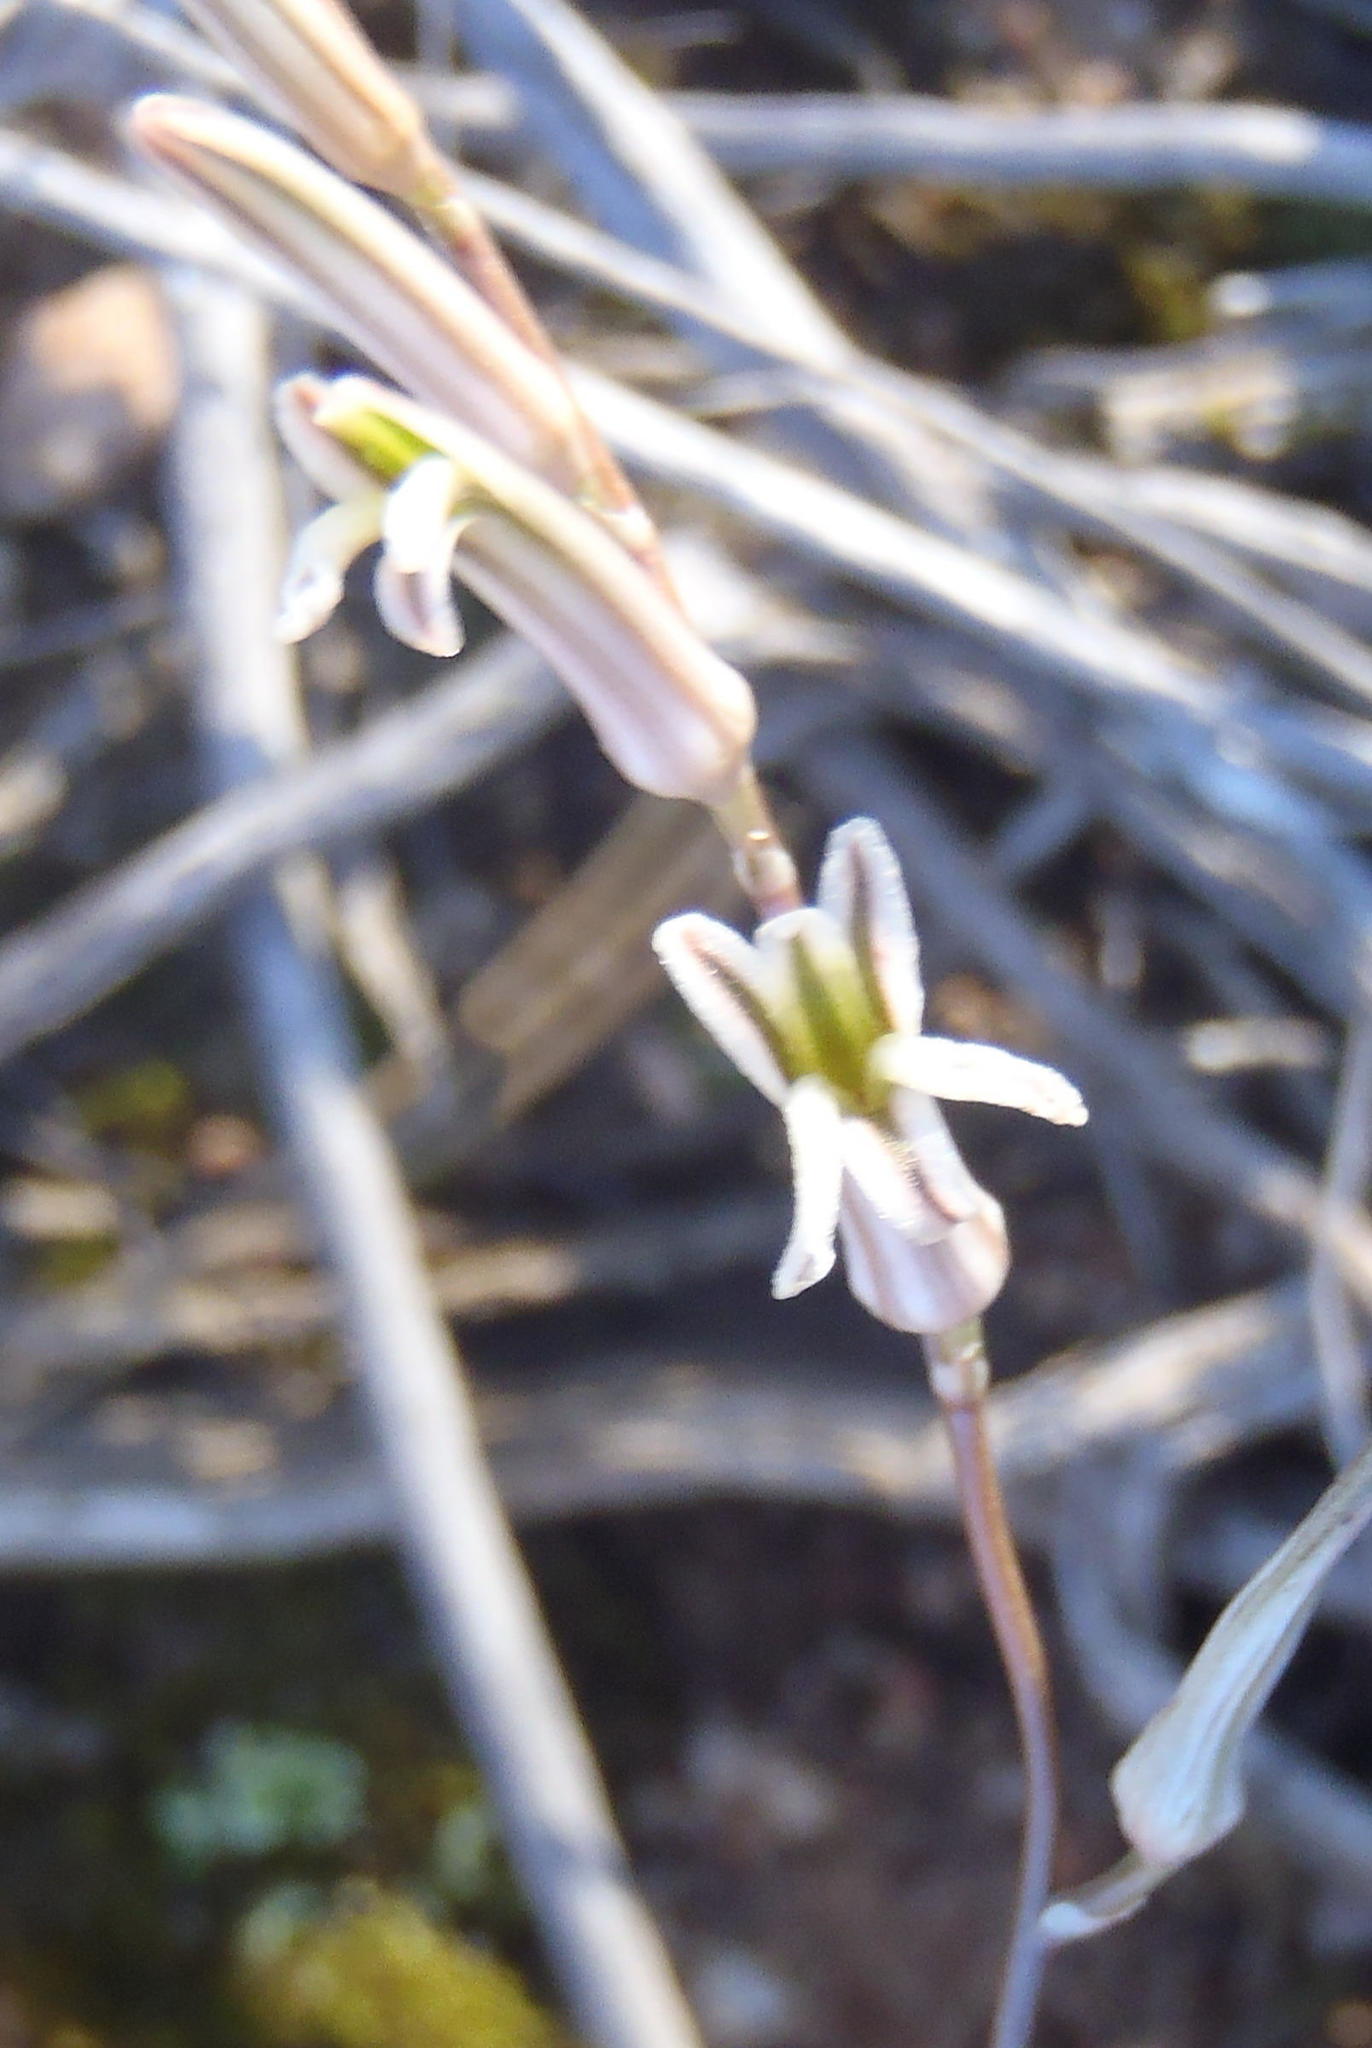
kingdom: Plantae
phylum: Tracheophyta
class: Liliopsida
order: Asparagales
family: Asphodelaceae
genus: Haworthiopsis
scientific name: Haworthiopsis scabra
